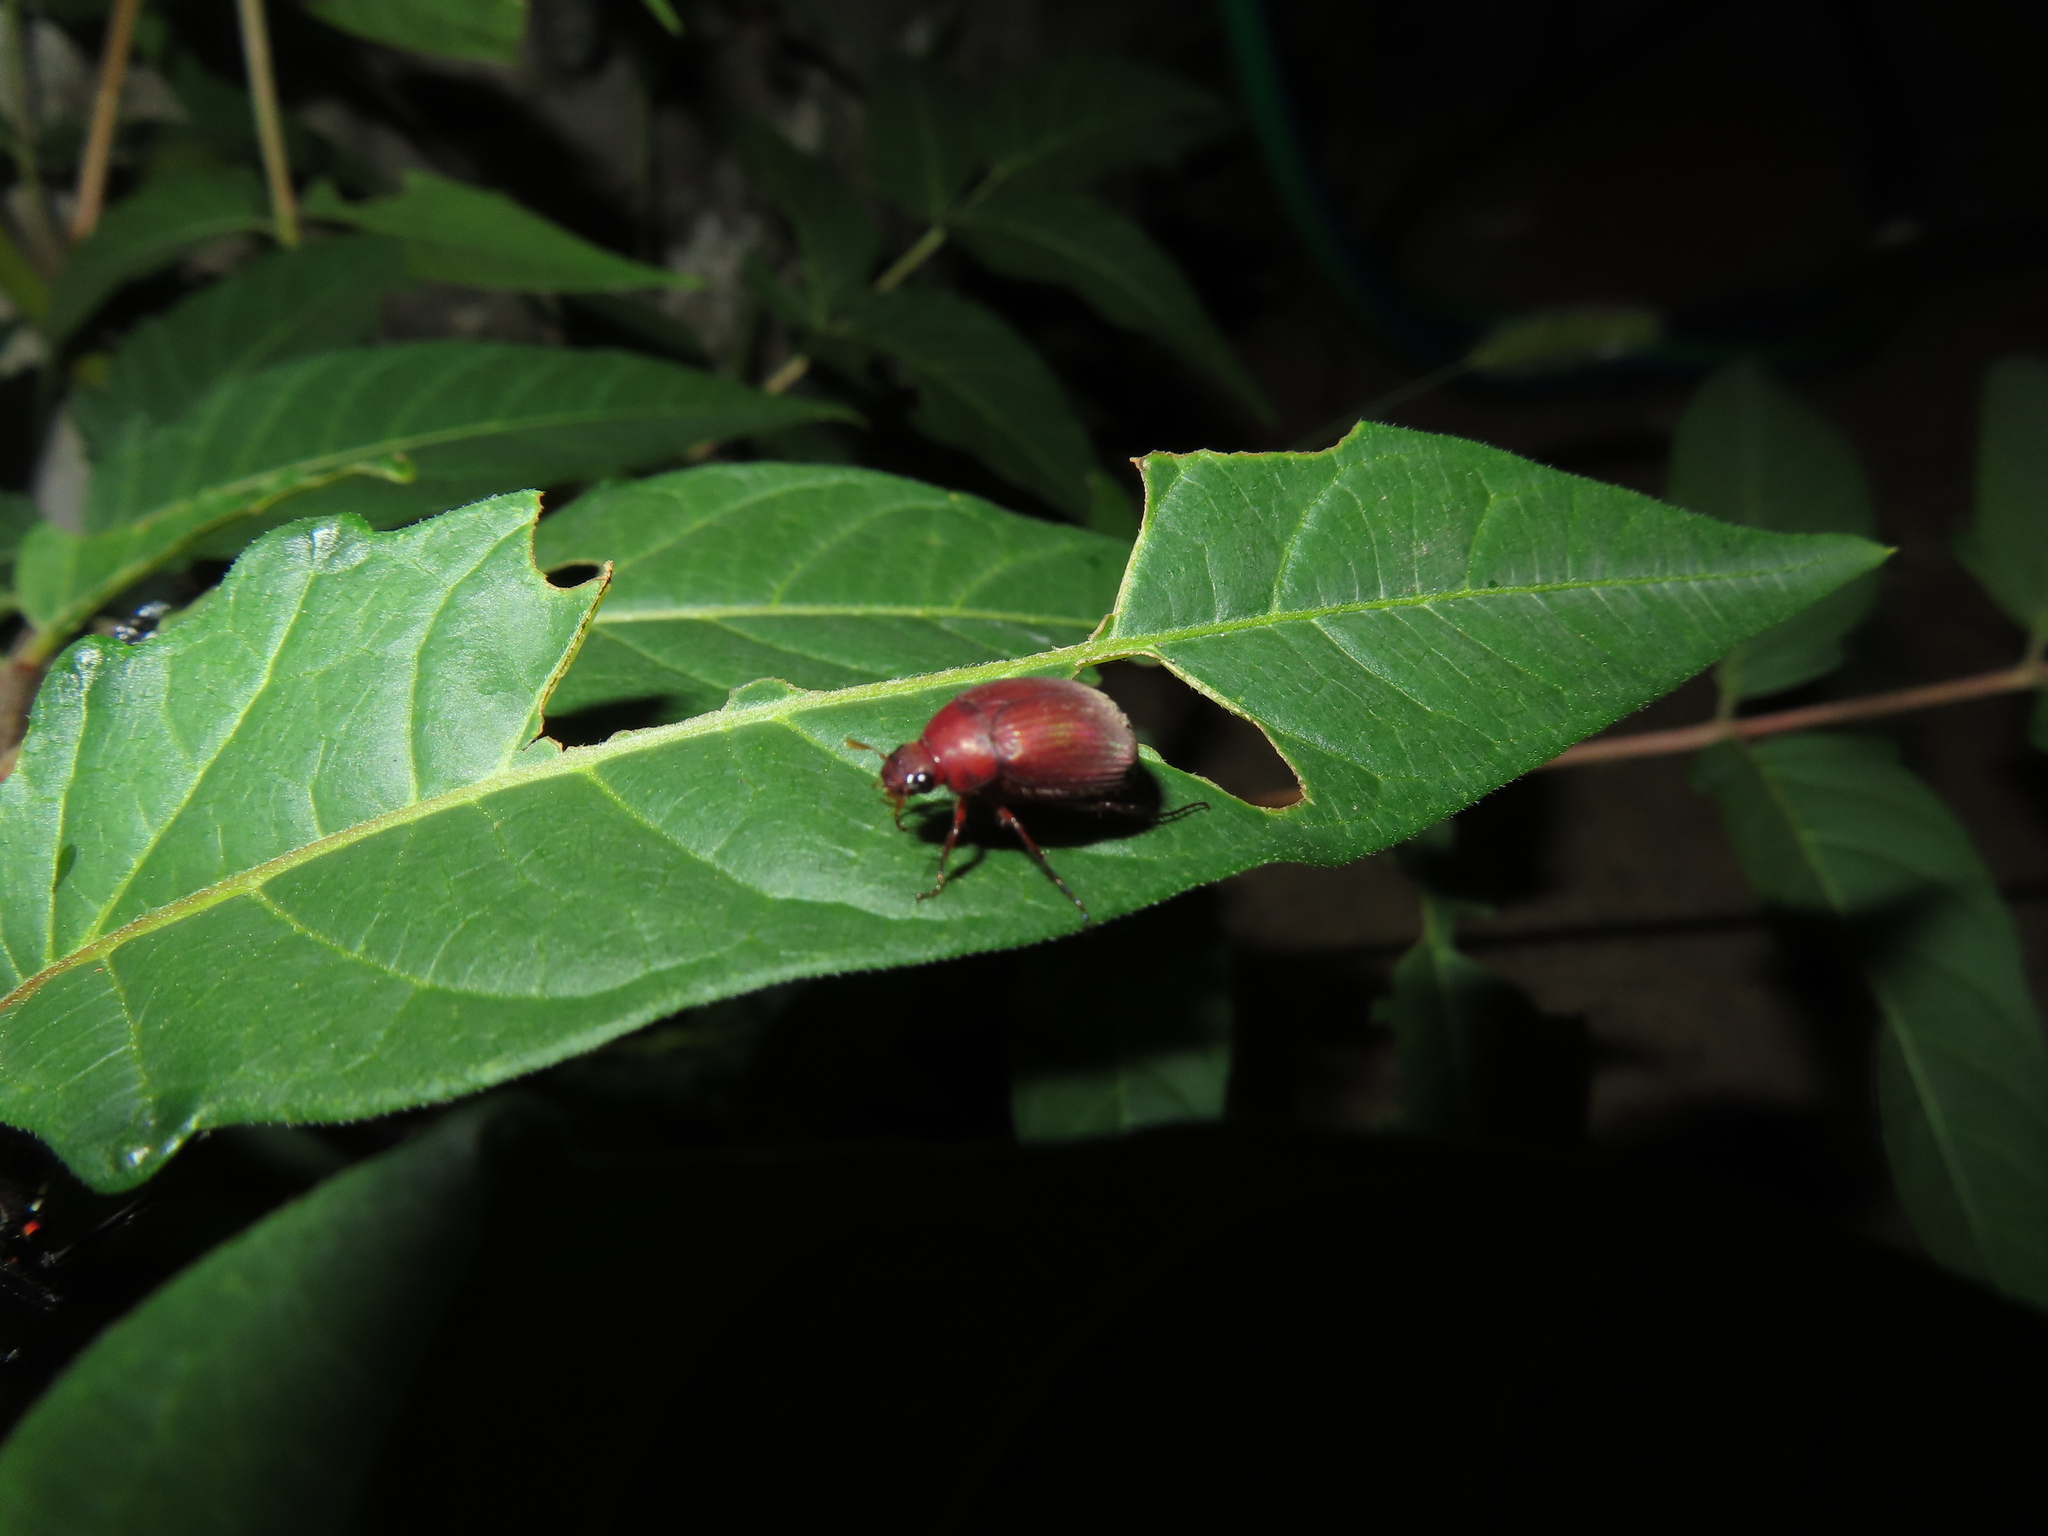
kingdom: Animalia
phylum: Arthropoda
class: Insecta
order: Coleoptera
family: Scarabaeidae
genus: Maladera
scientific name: Maladera formosae
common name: Asiatic garden beetle
